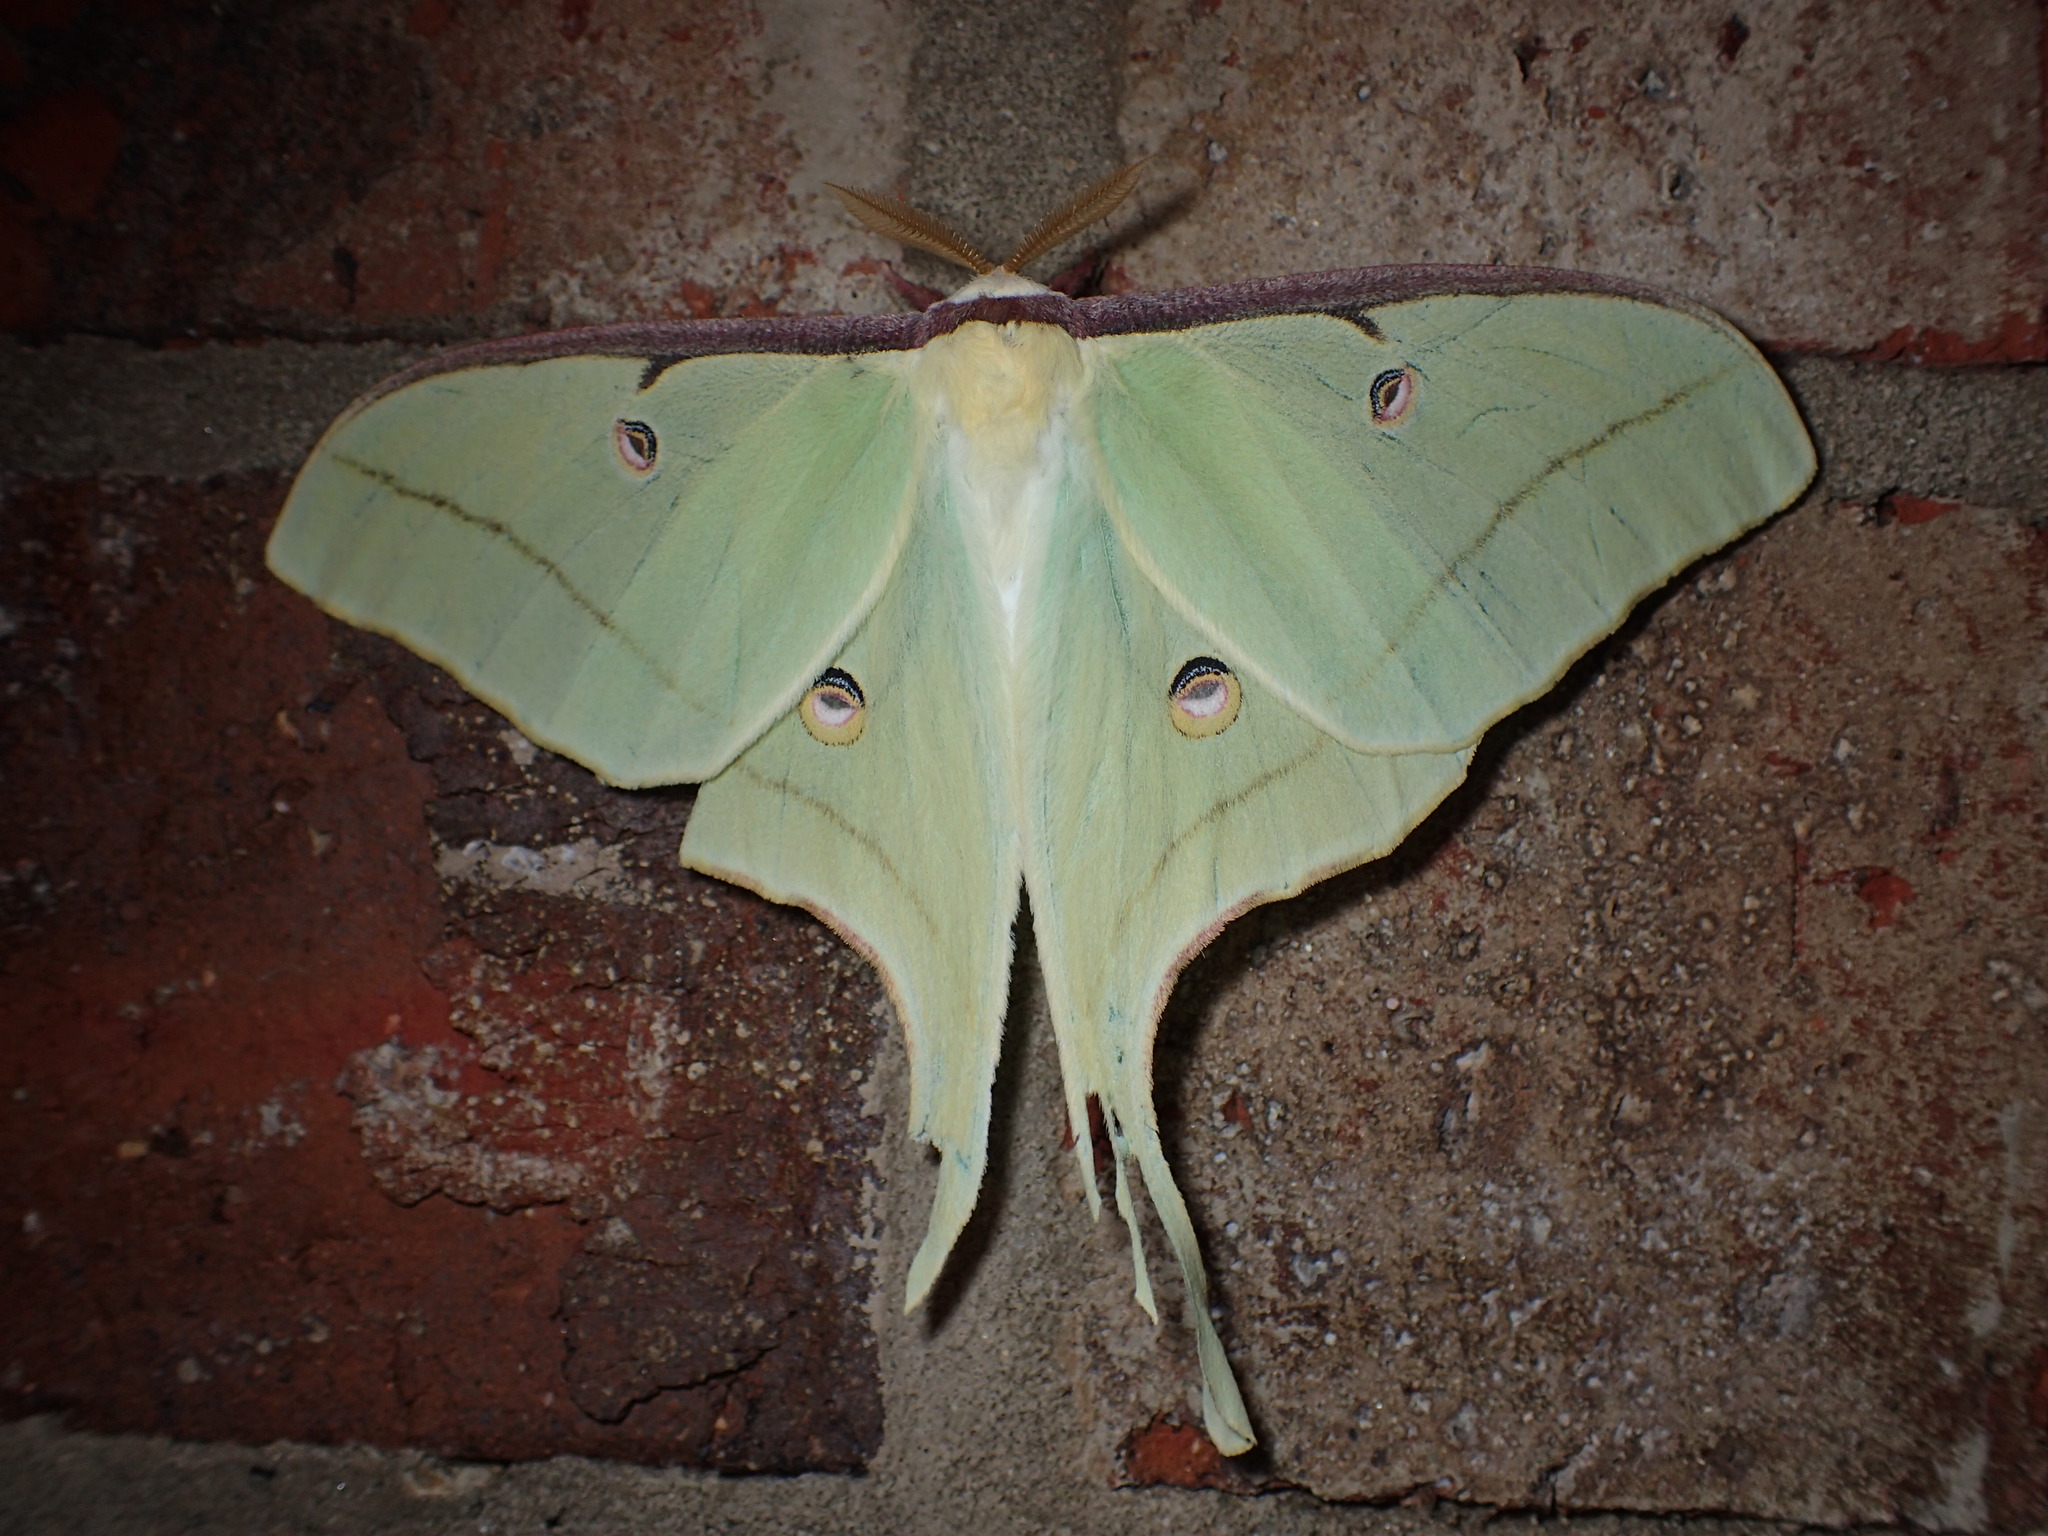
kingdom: Animalia
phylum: Arthropoda
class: Insecta
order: Lepidoptera
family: Saturniidae
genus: Actias
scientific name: Actias luna
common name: Luna moth
